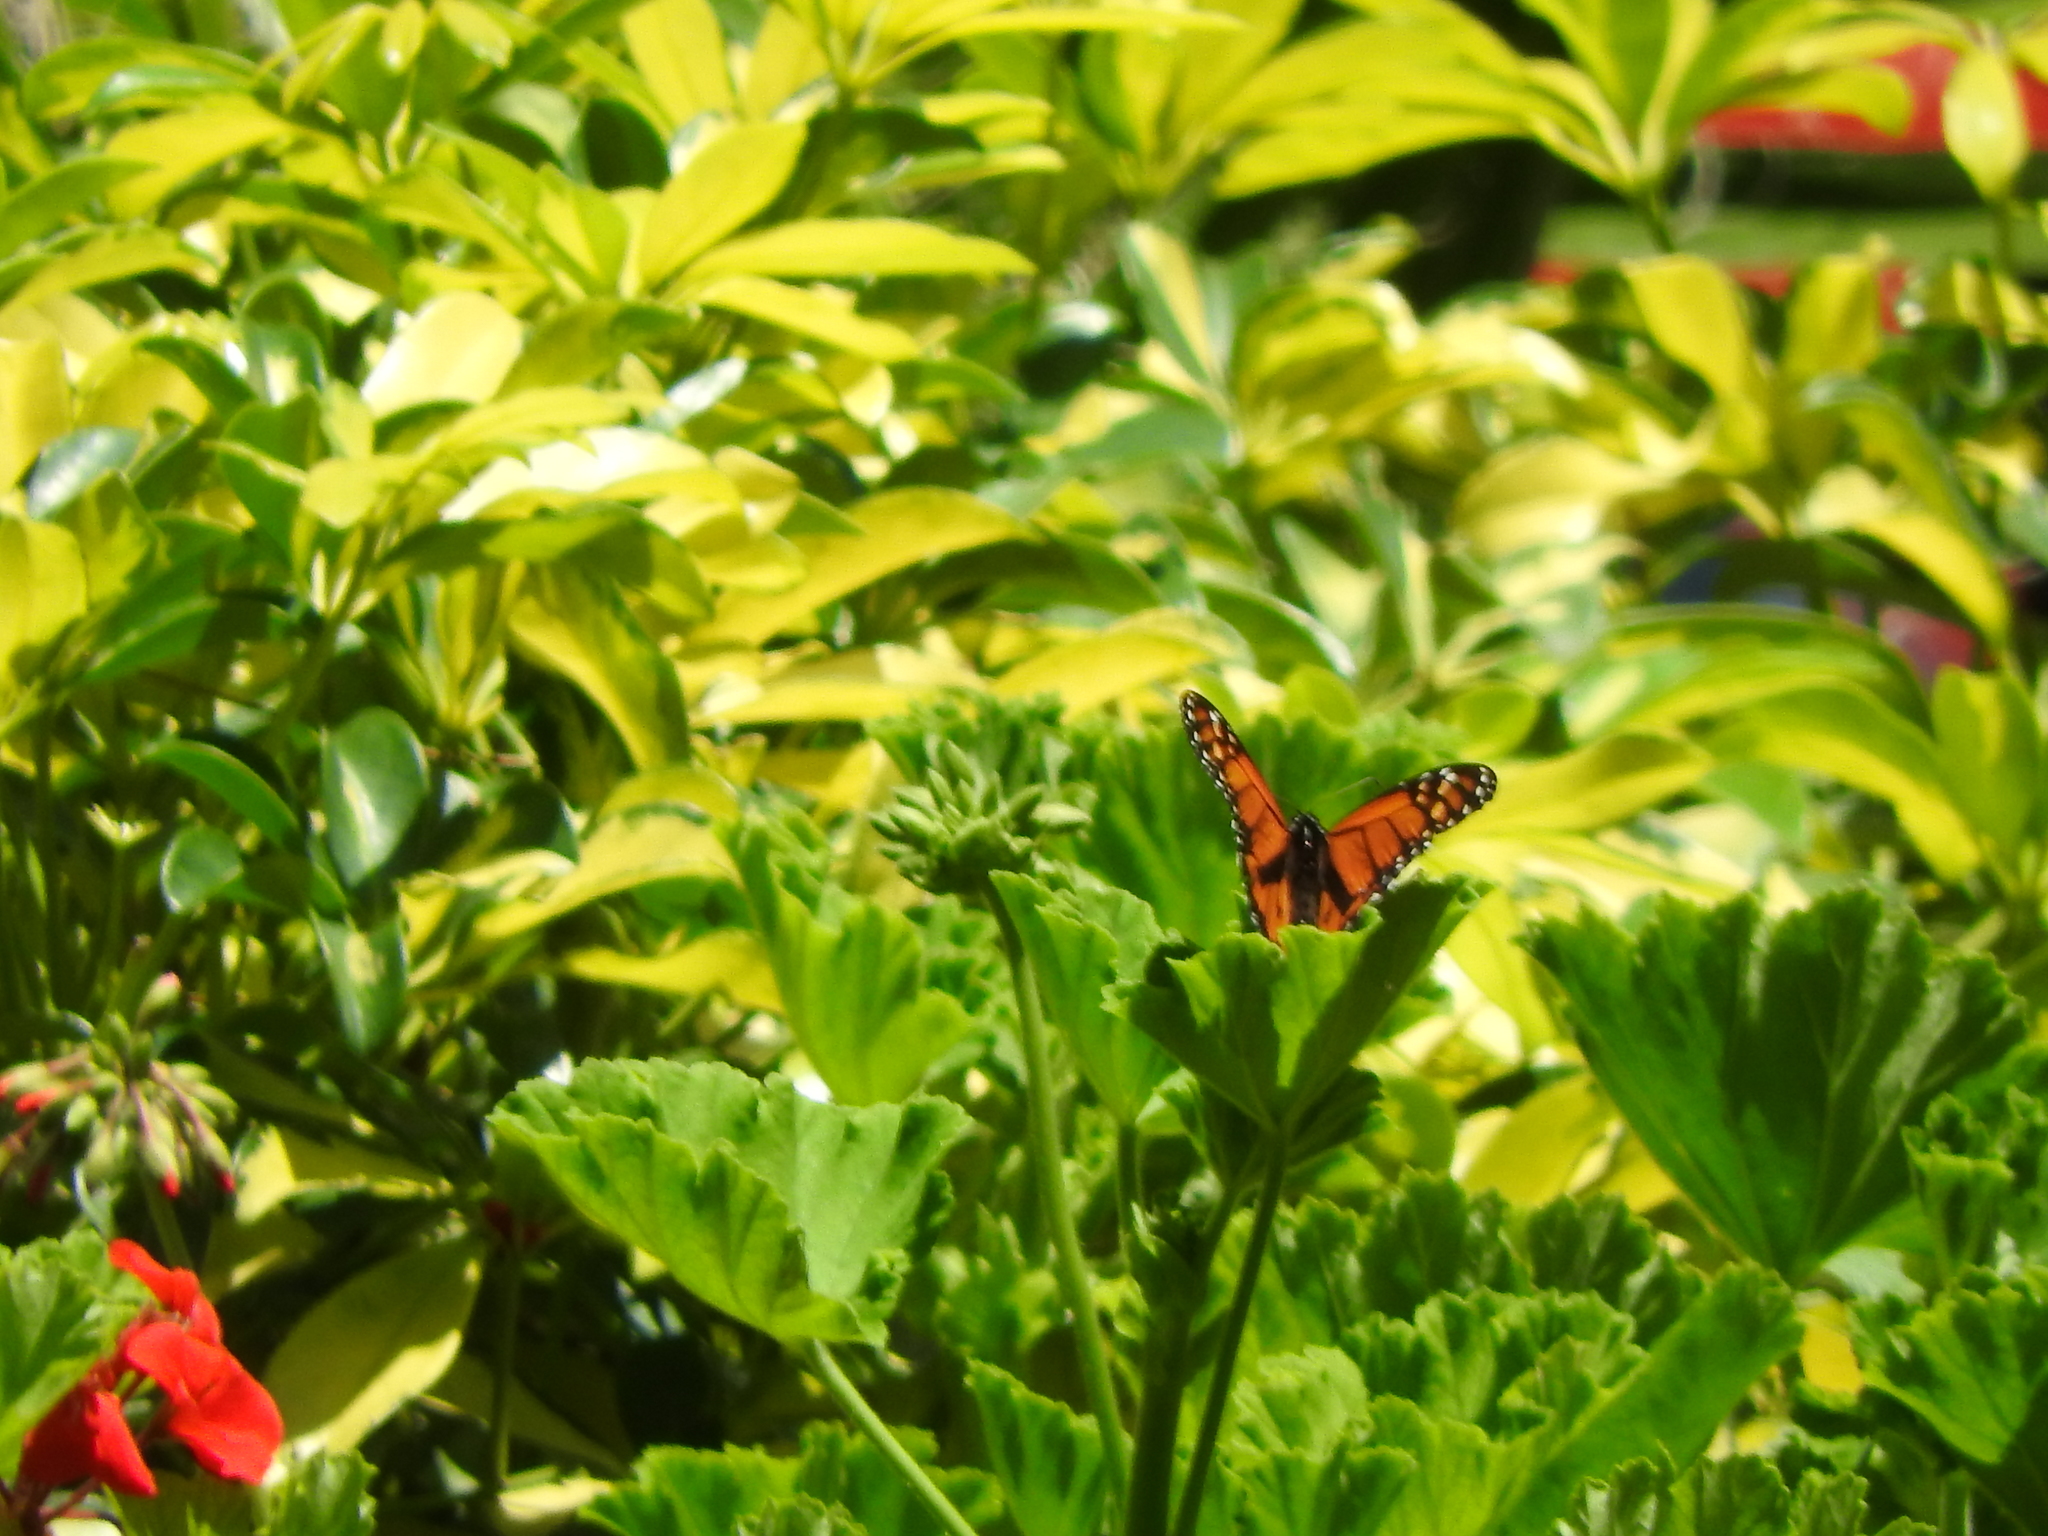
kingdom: Animalia
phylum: Arthropoda
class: Insecta
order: Lepidoptera
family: Nymphalidae
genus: Danaus
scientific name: Danaus plexippus
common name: Monarch
